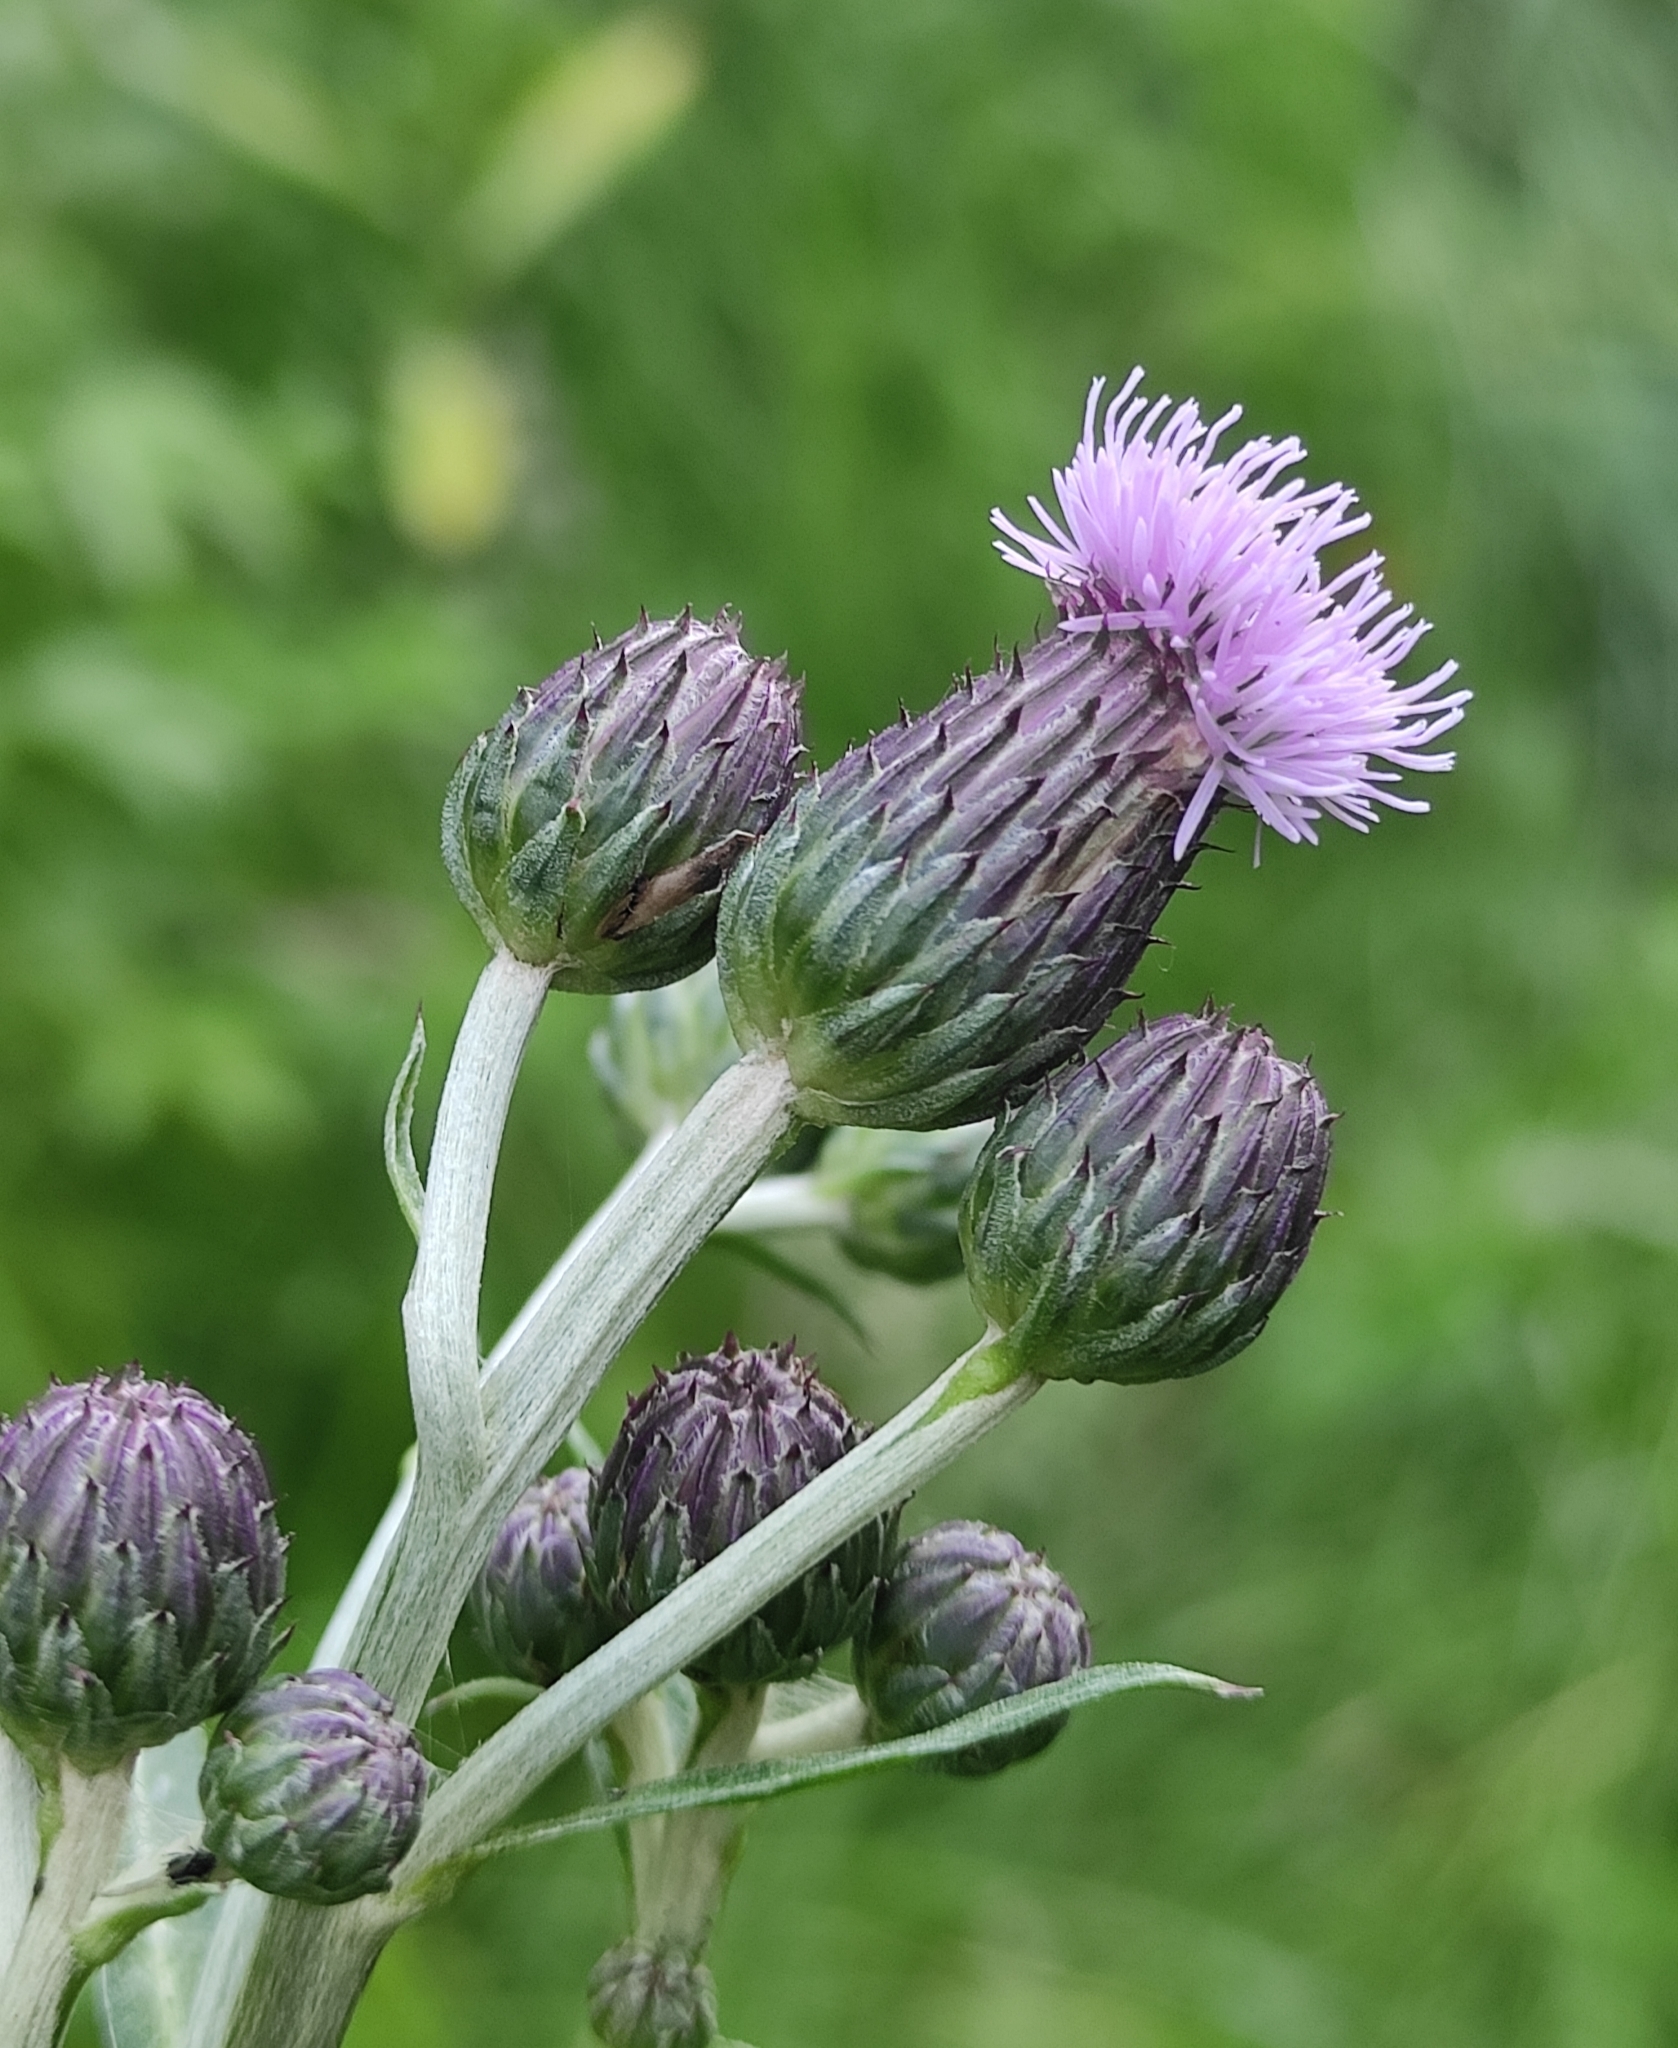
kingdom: Plantae
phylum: Tracheophyta
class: Magnoliopsida
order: Asterales
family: Asteraceae
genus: Cirsium
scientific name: Cirsium arvense
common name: Creeping thistle
